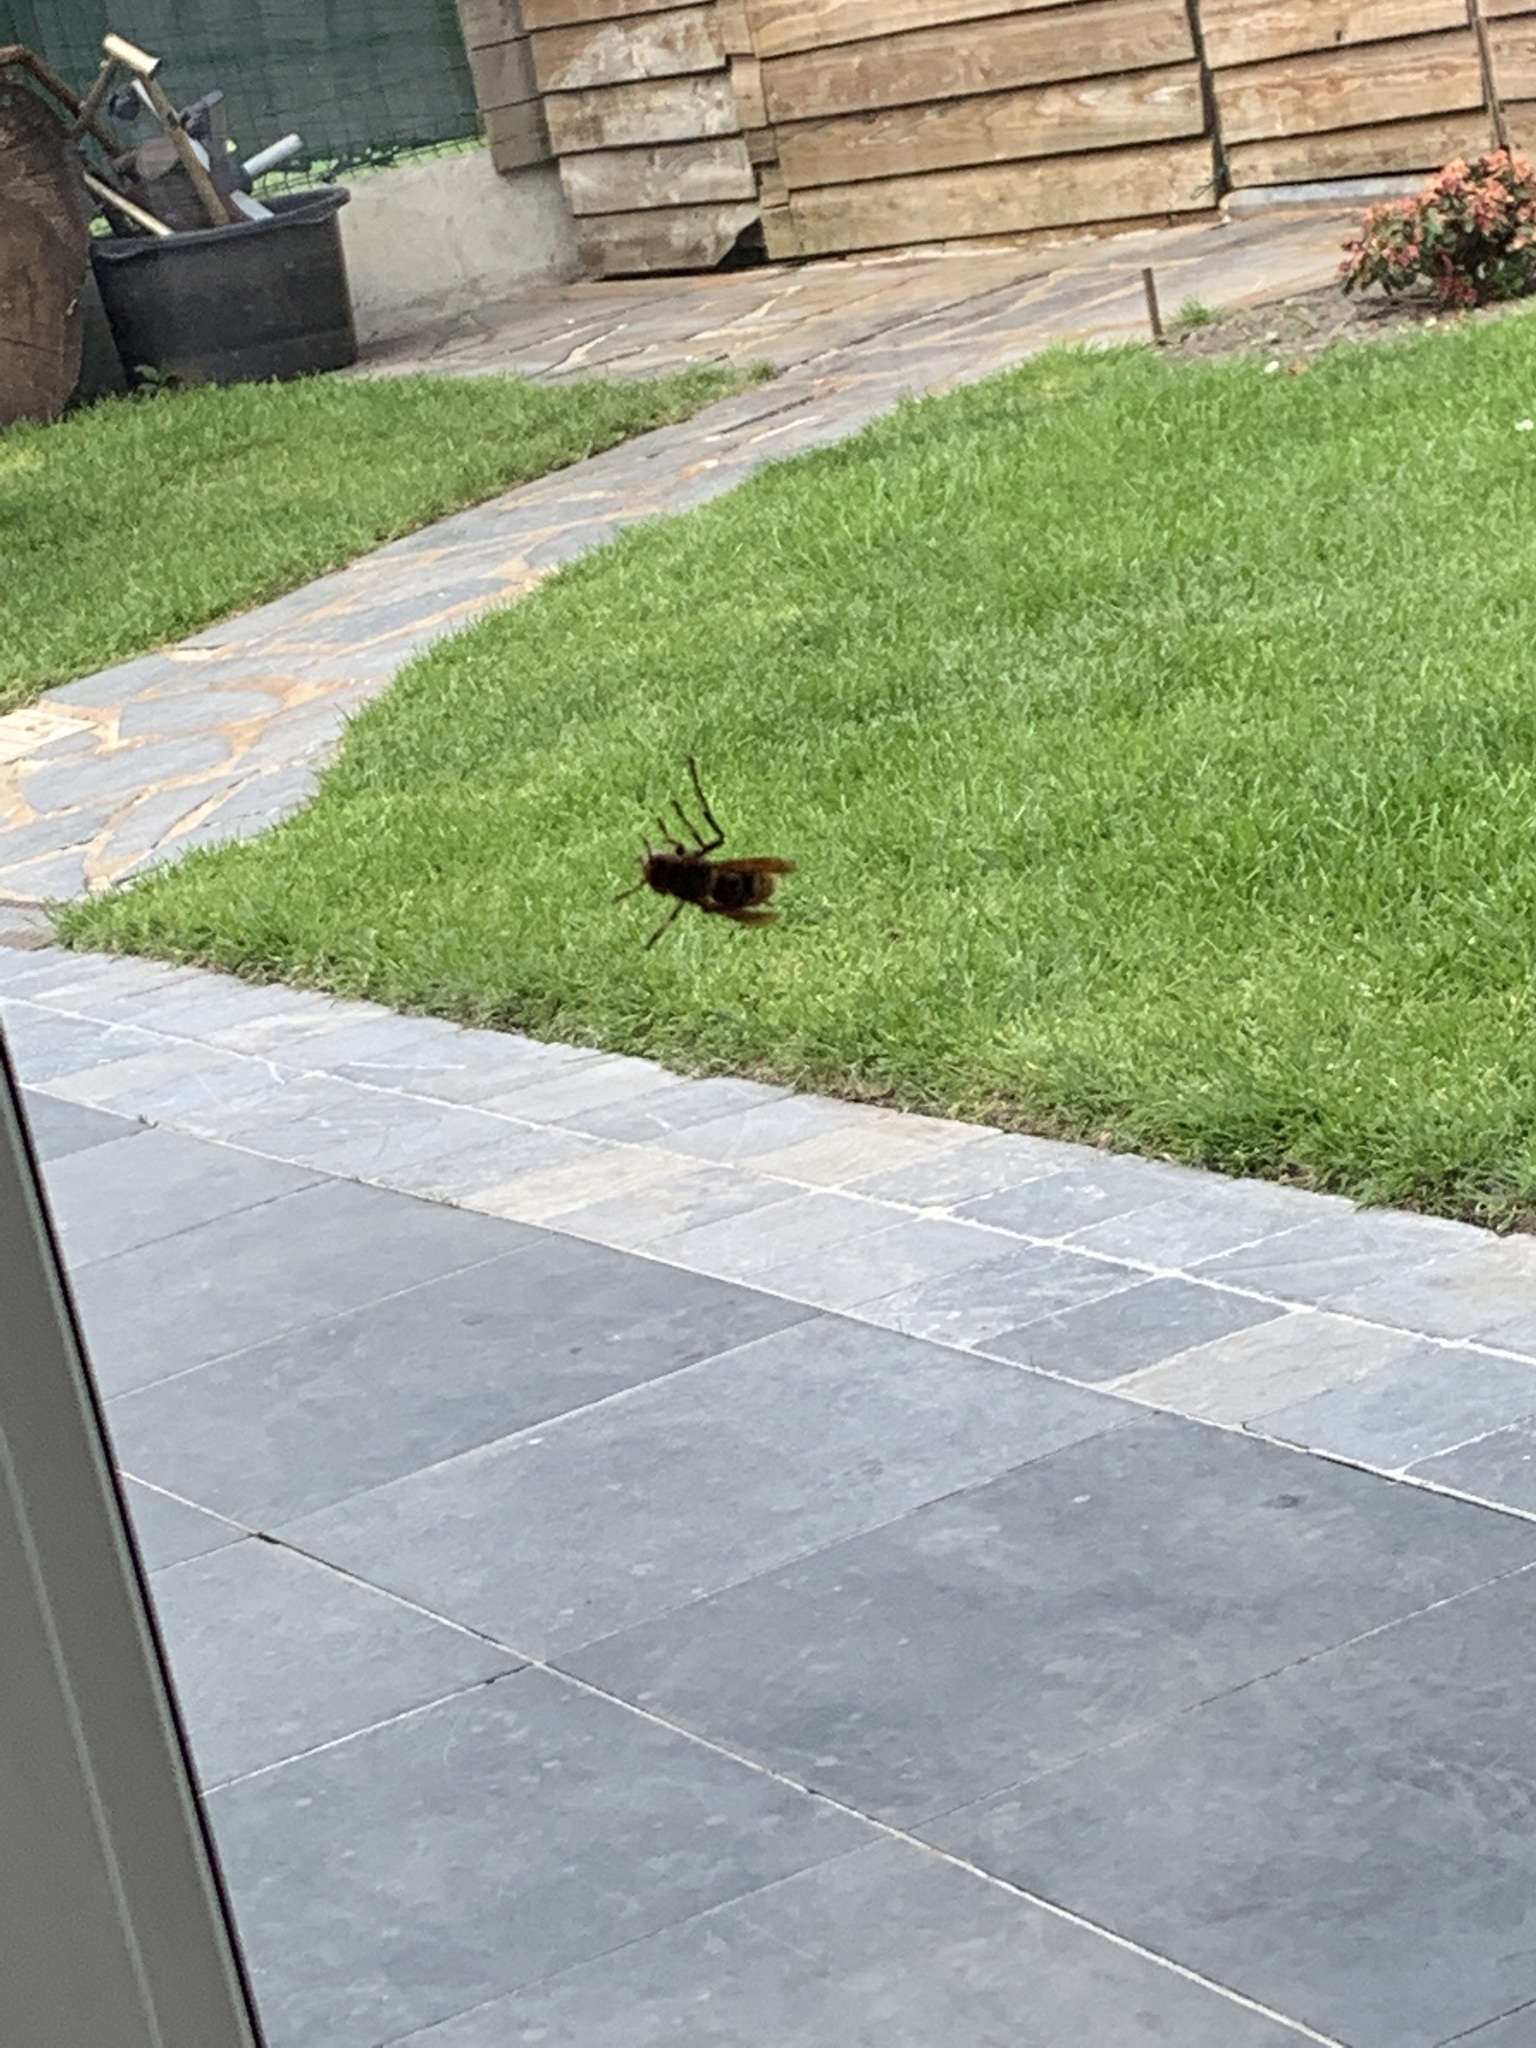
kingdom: Animalia
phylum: Arthropoda
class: Insecta
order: Hymenoptera
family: Vespidae
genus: Vespa
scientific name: Vespa crabro
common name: Hornet
